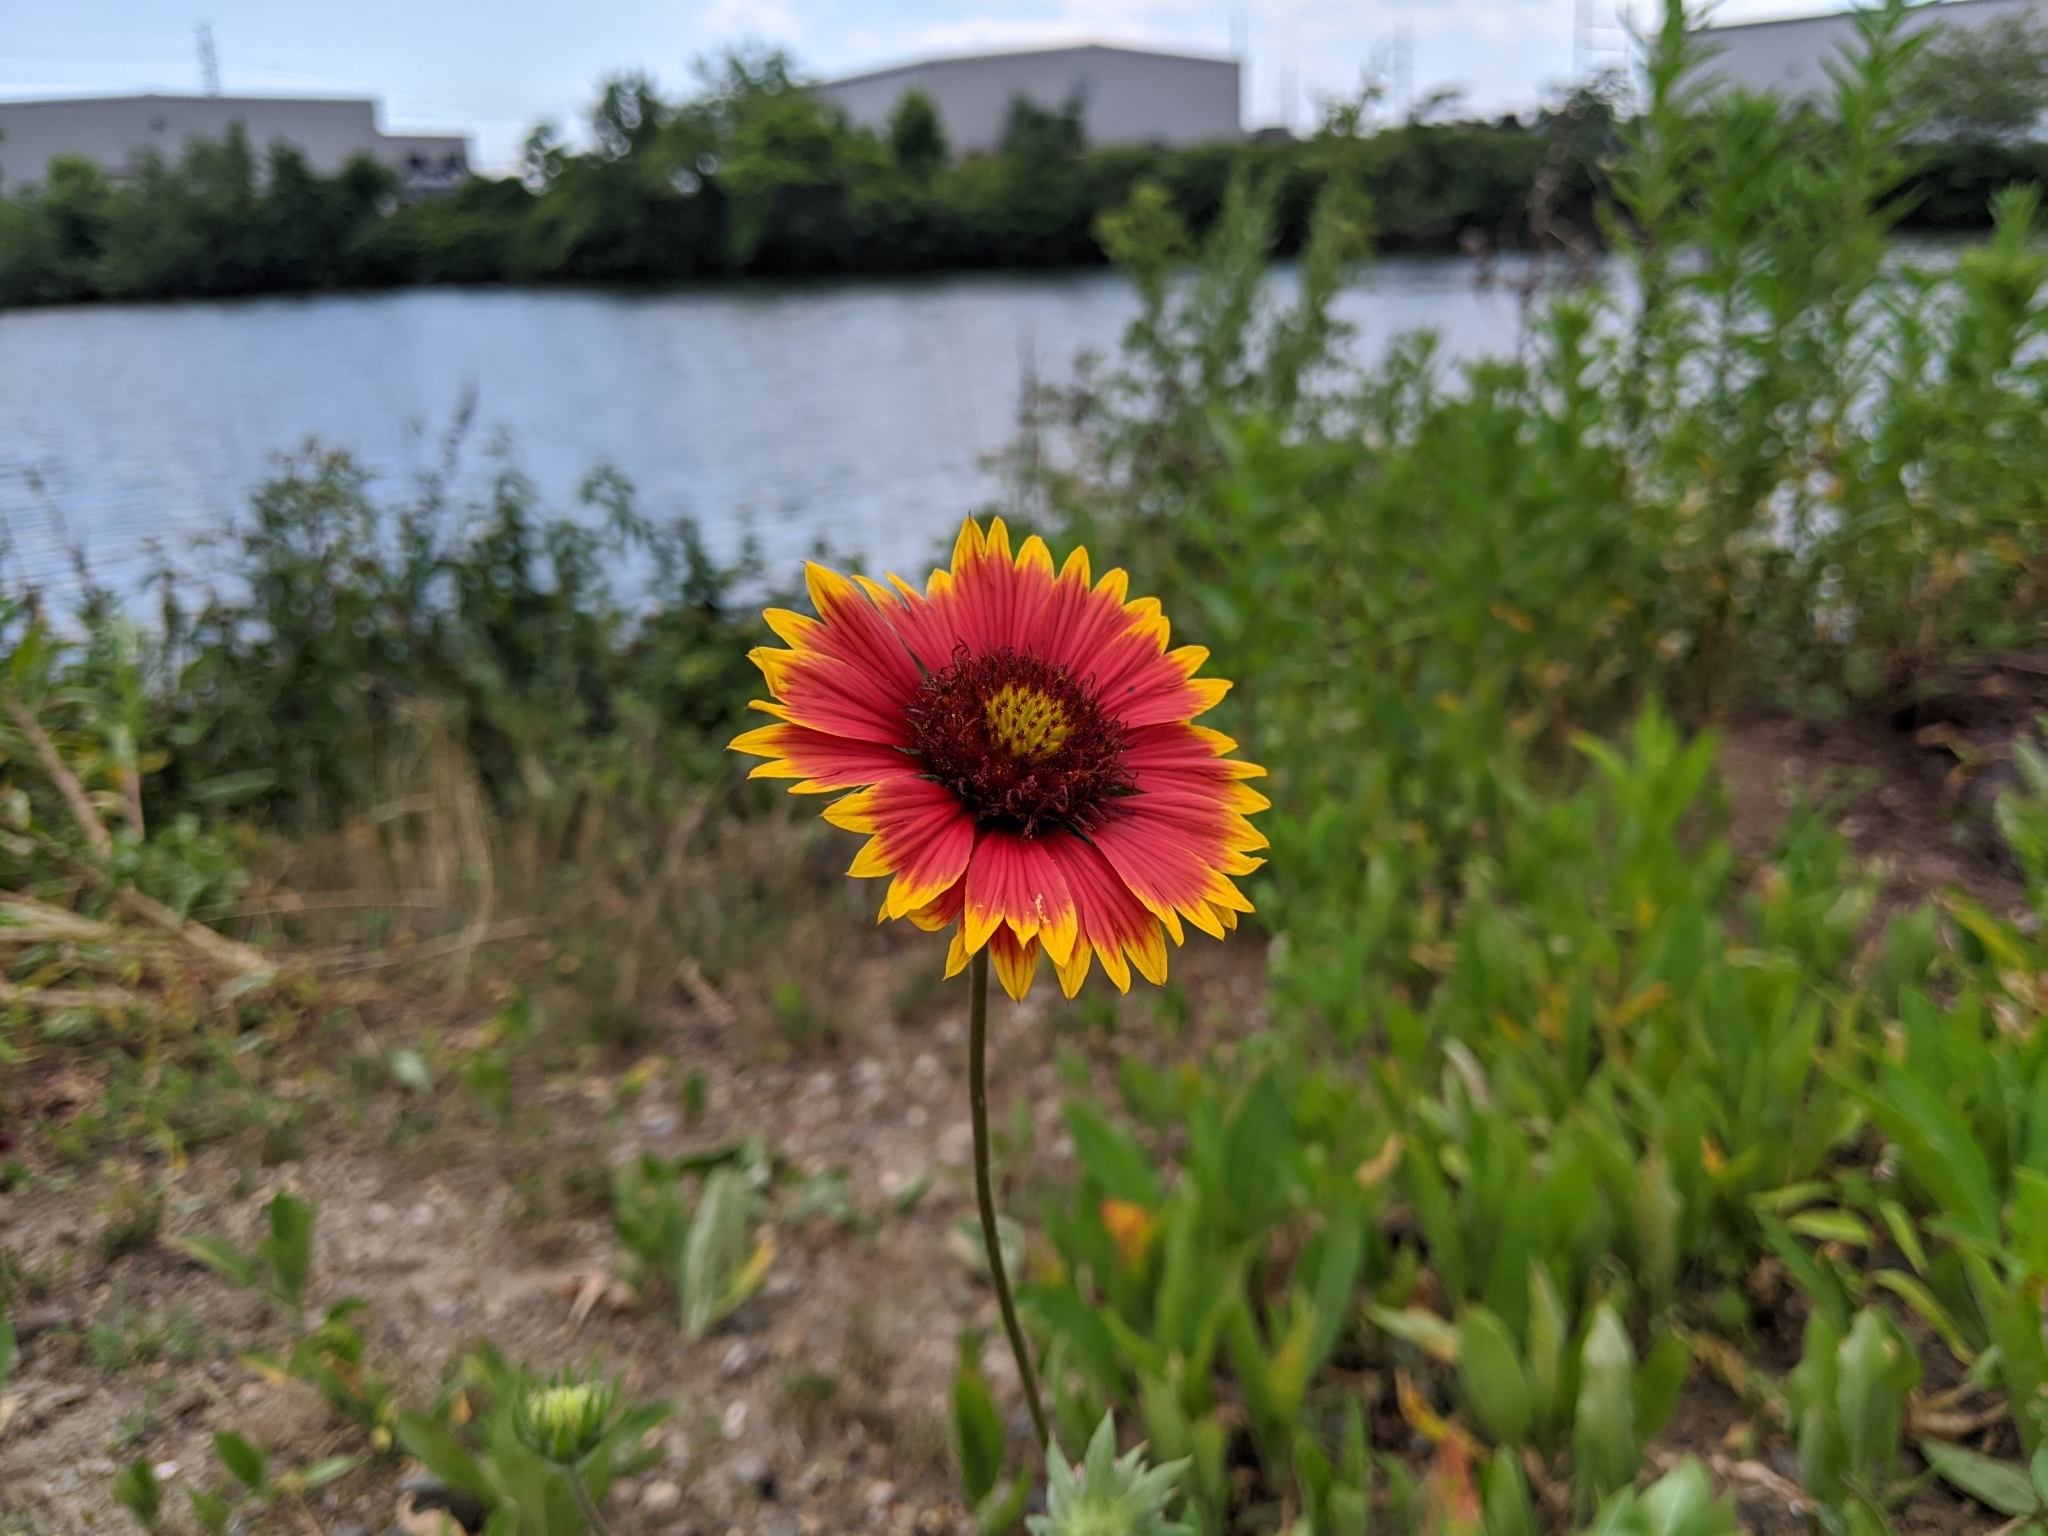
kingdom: Plantae
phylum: Tracheophyta
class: Magnoliopsida
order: Asterales
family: Asteraceae
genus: Gaillardia
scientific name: Gaillardia pulchella
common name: Firewheel
